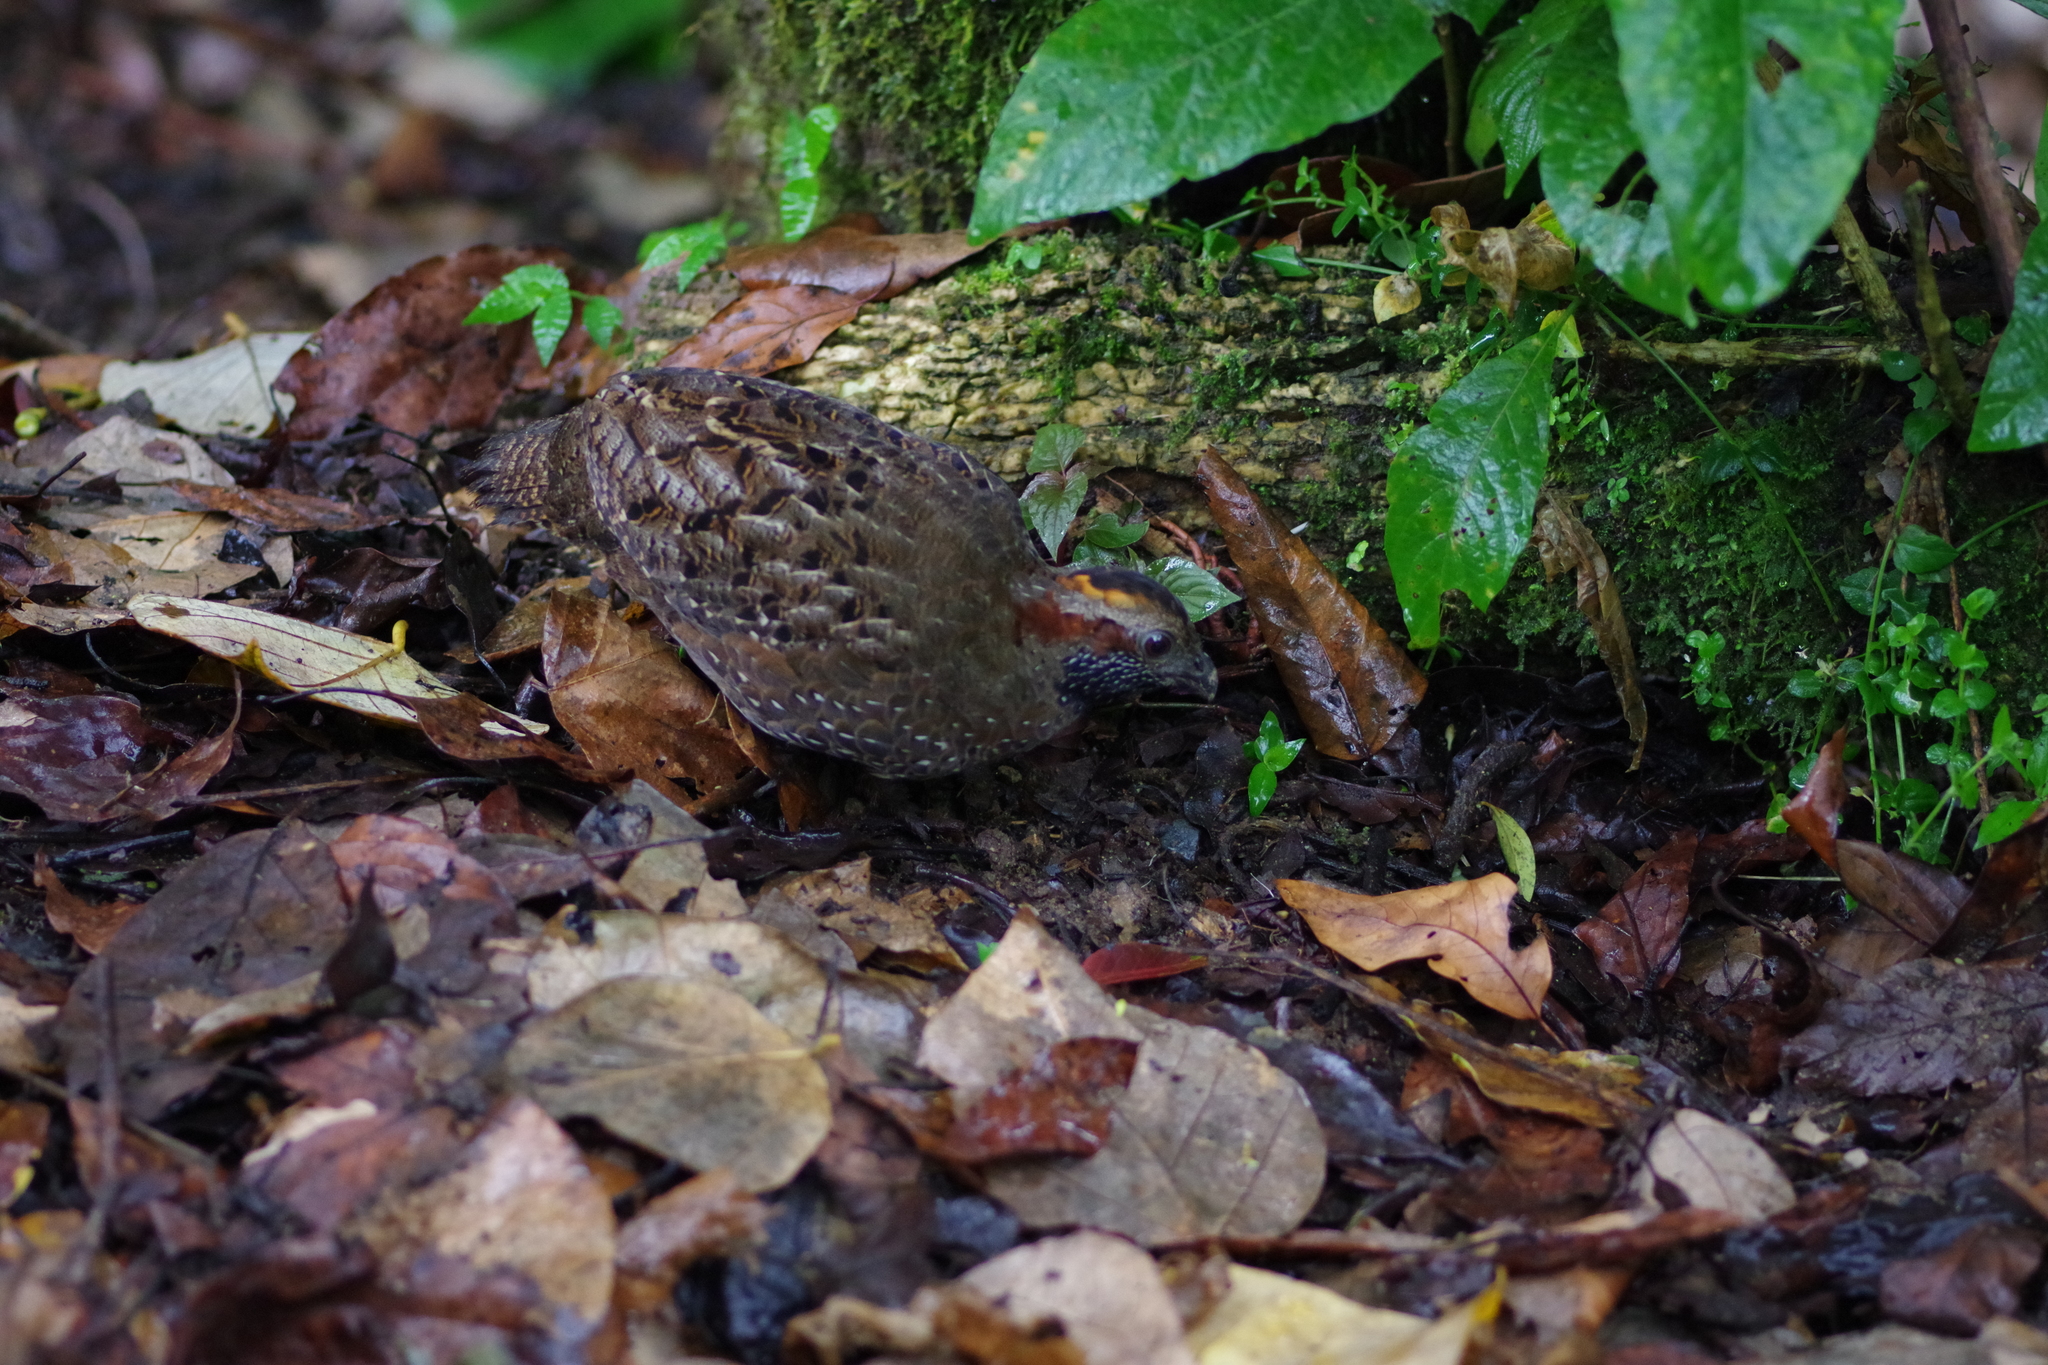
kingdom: Animalia
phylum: Chordata
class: Aves
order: Galliformes
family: Odontophoridae
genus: Odontophorus
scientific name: Odontophorus guttatus
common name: Spotted wood-quail
